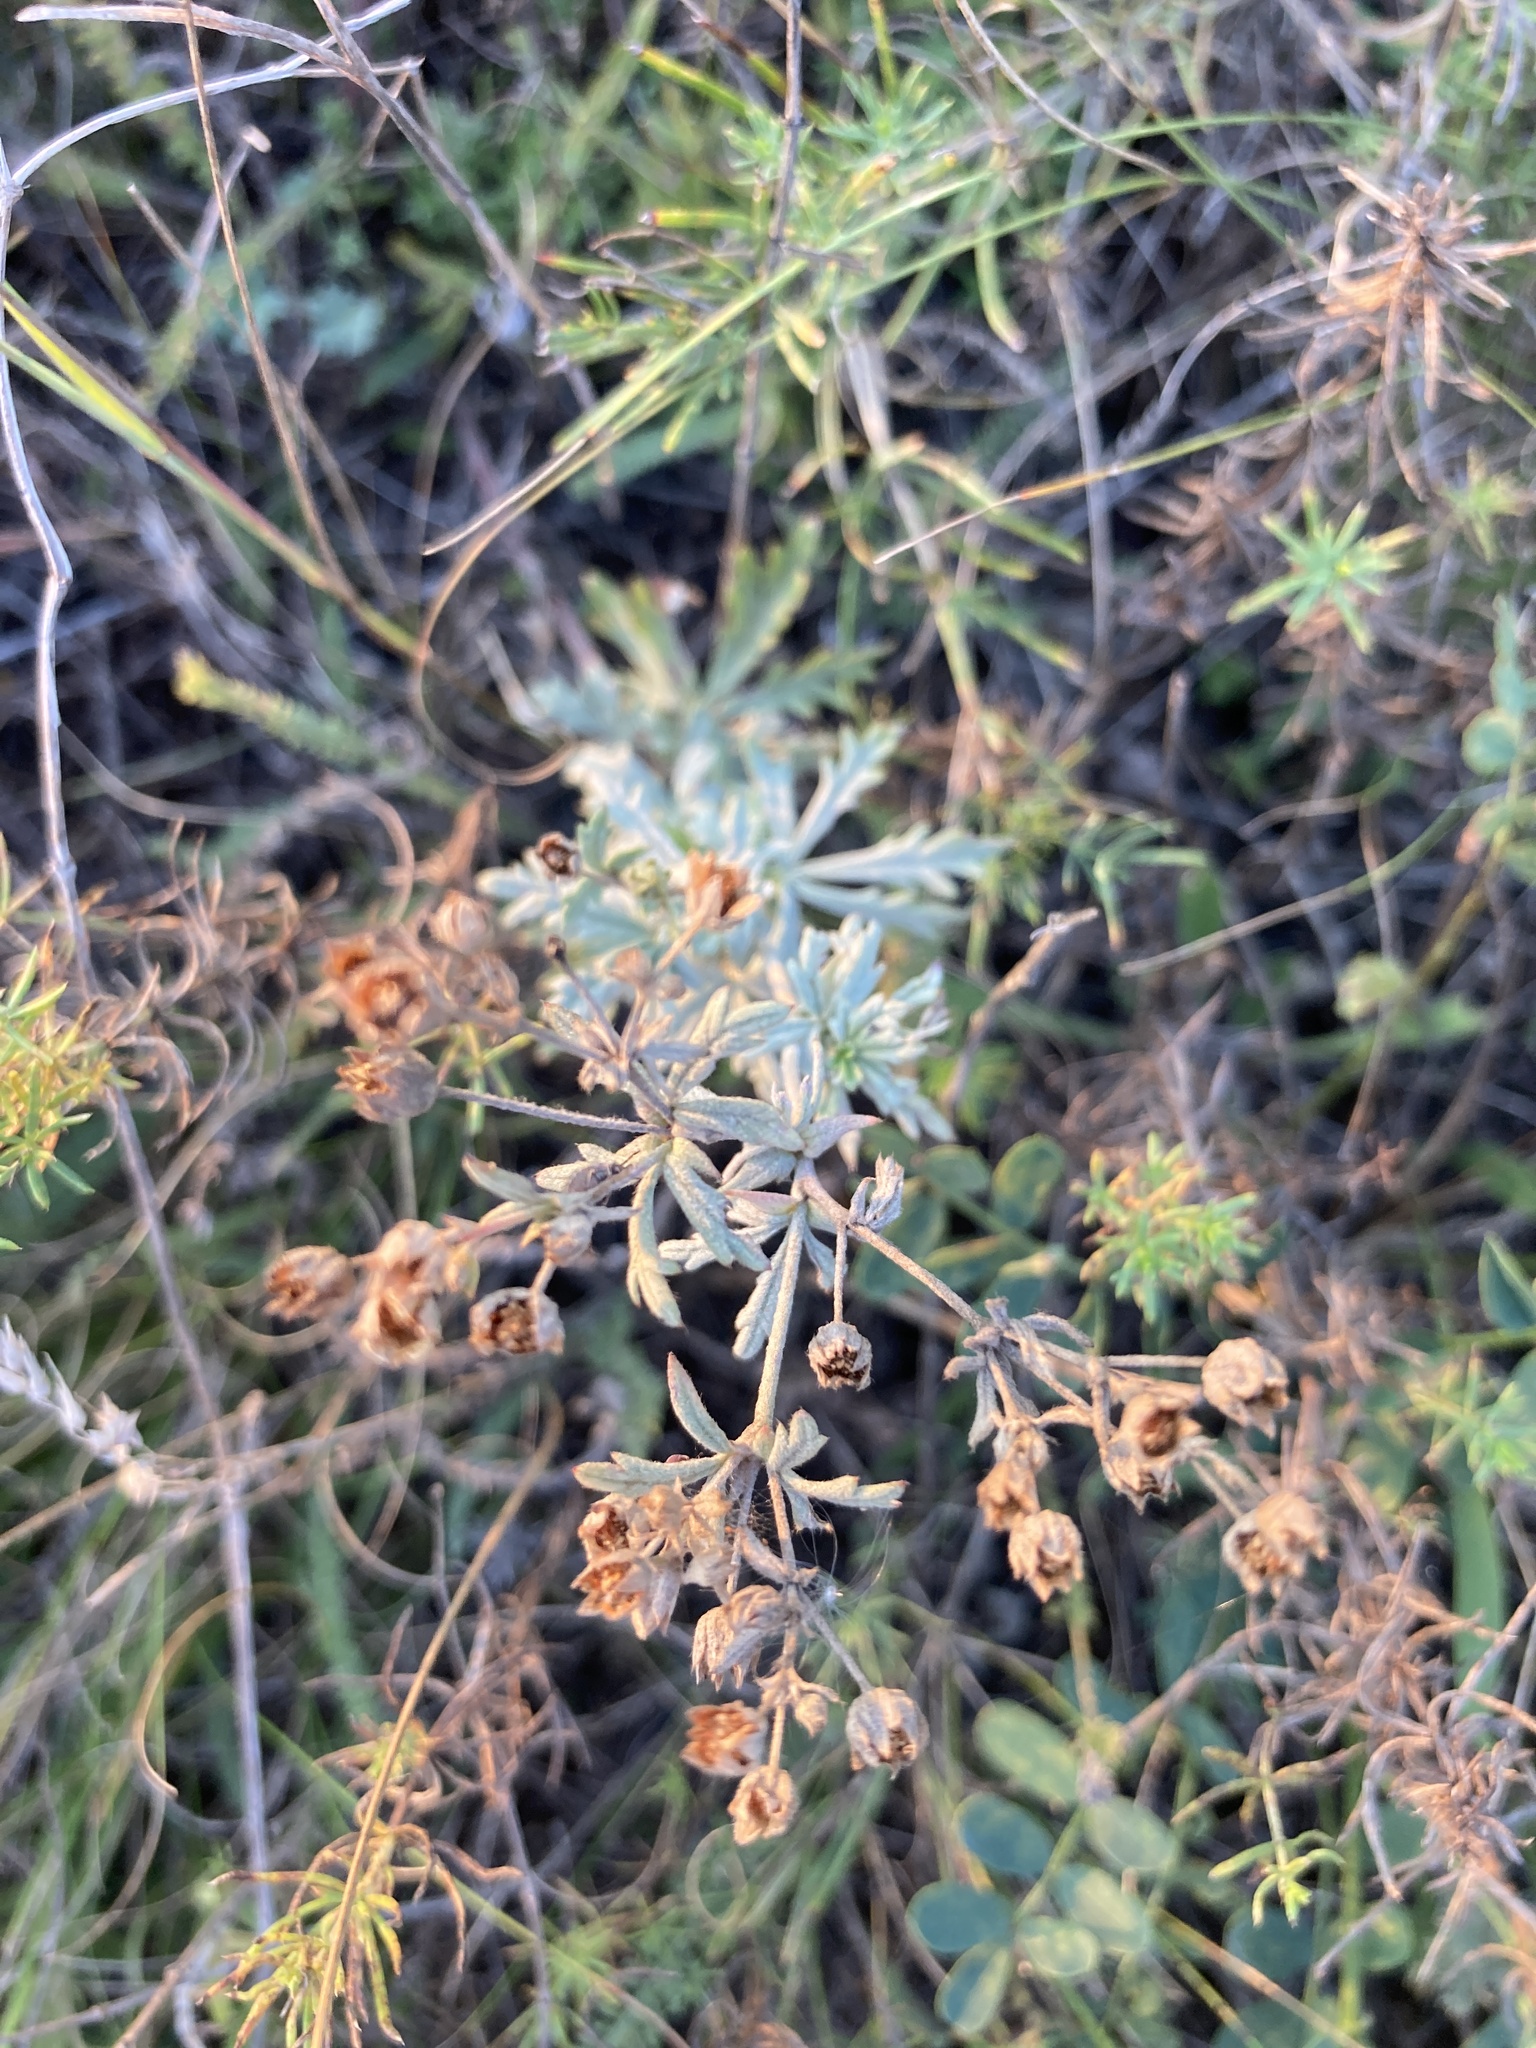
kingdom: Plantae
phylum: Tracheophyta
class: Magnoliopsida
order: Rosales
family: Rosaceae
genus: Potentilla
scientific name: Potentilla argentea
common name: Hoary cinquefoil
